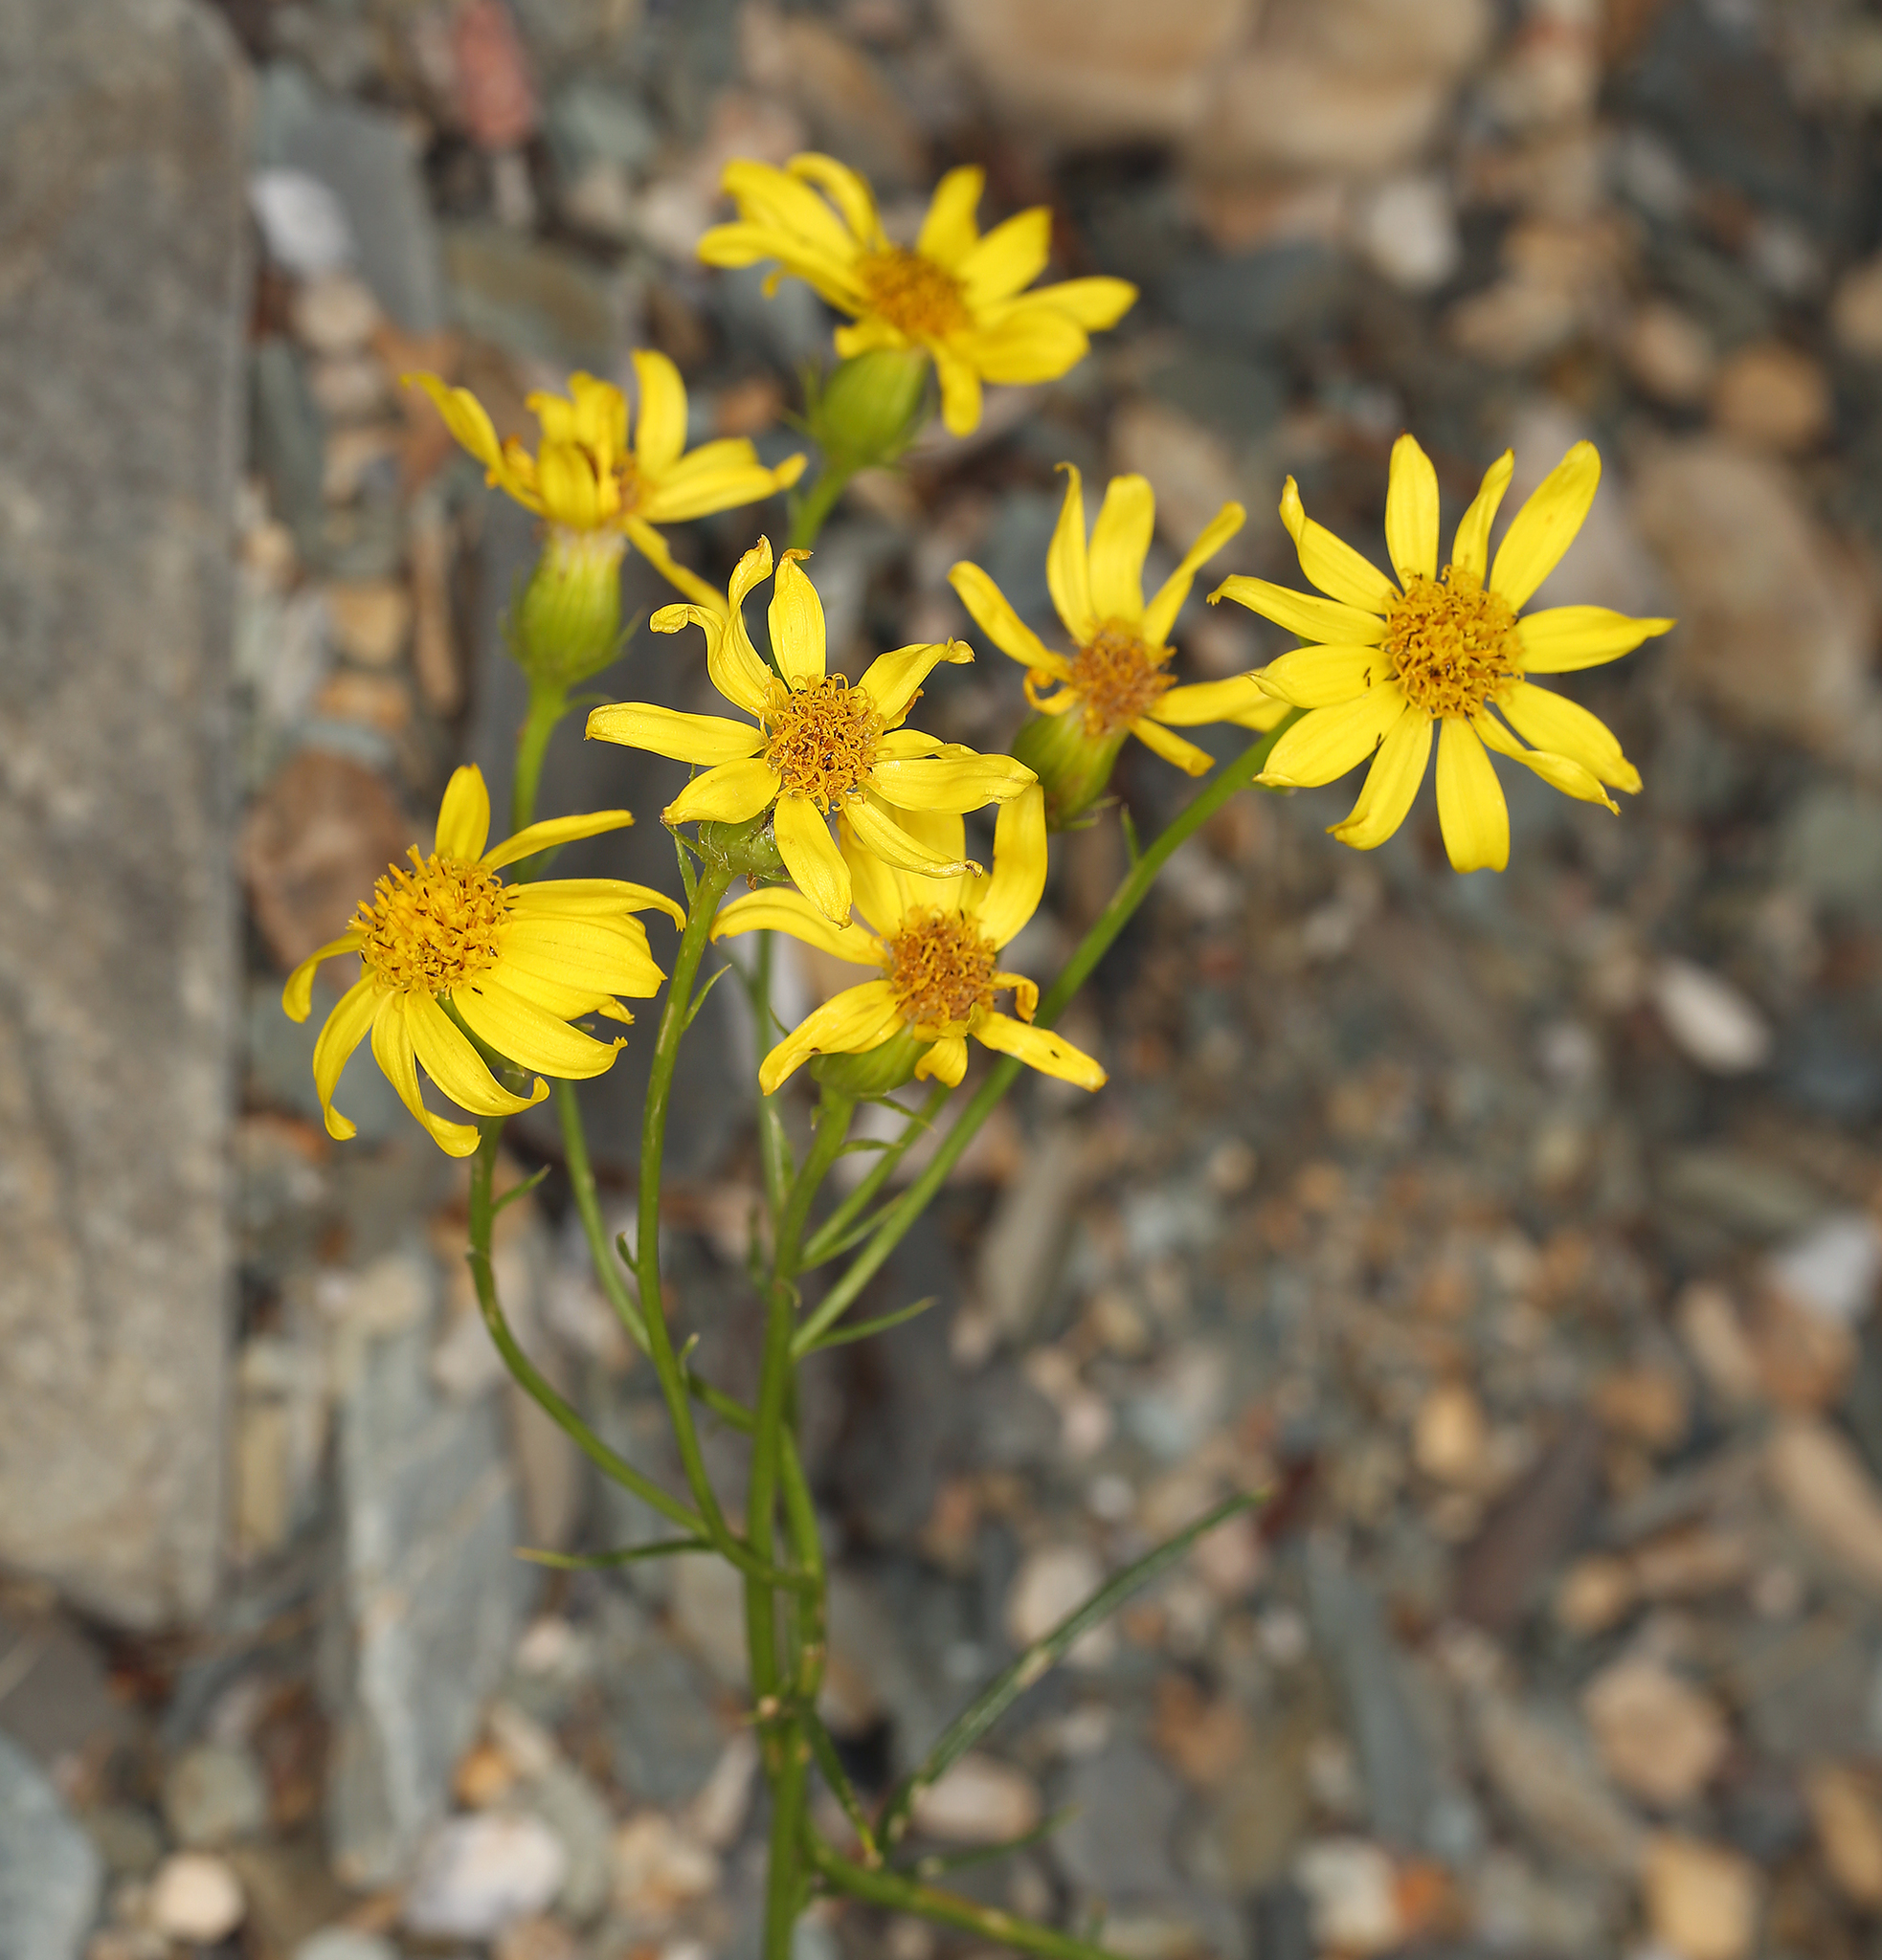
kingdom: Plantae
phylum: Tracheophyta
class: Magnoliopsida
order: Asterales
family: Asteraceae
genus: Senecio
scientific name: Senecio flaccidus
